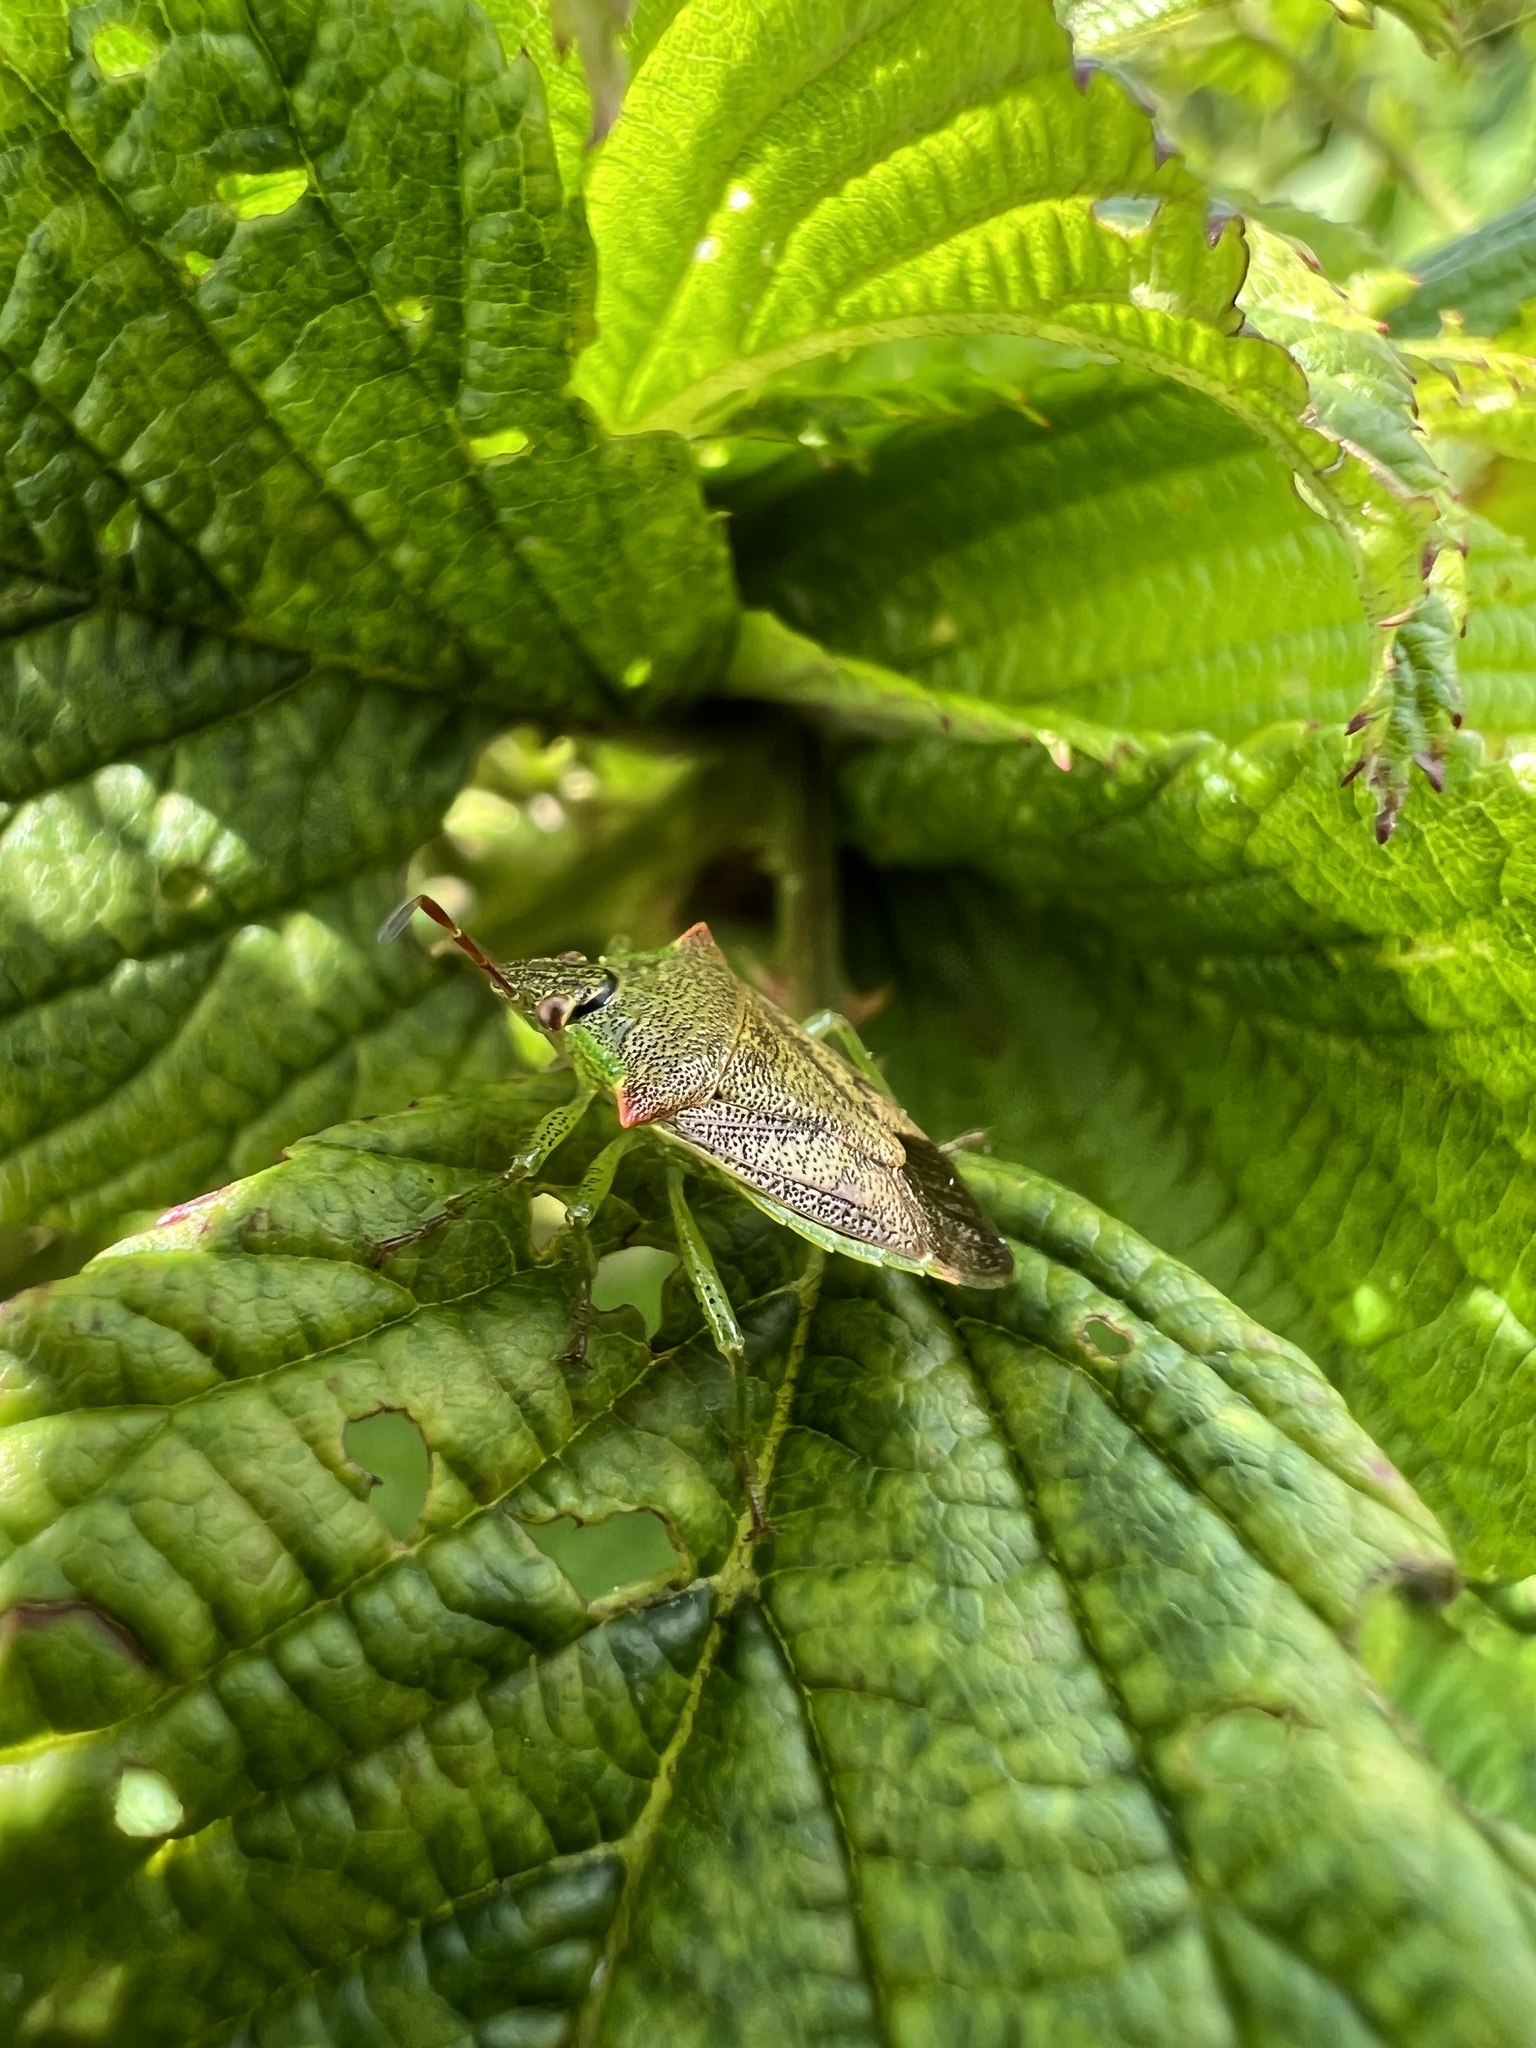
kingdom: Animalia
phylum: Arthropoda
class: Insecta
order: Hemiptera
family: Pentatomidae
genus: Podisus
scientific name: Podisus
